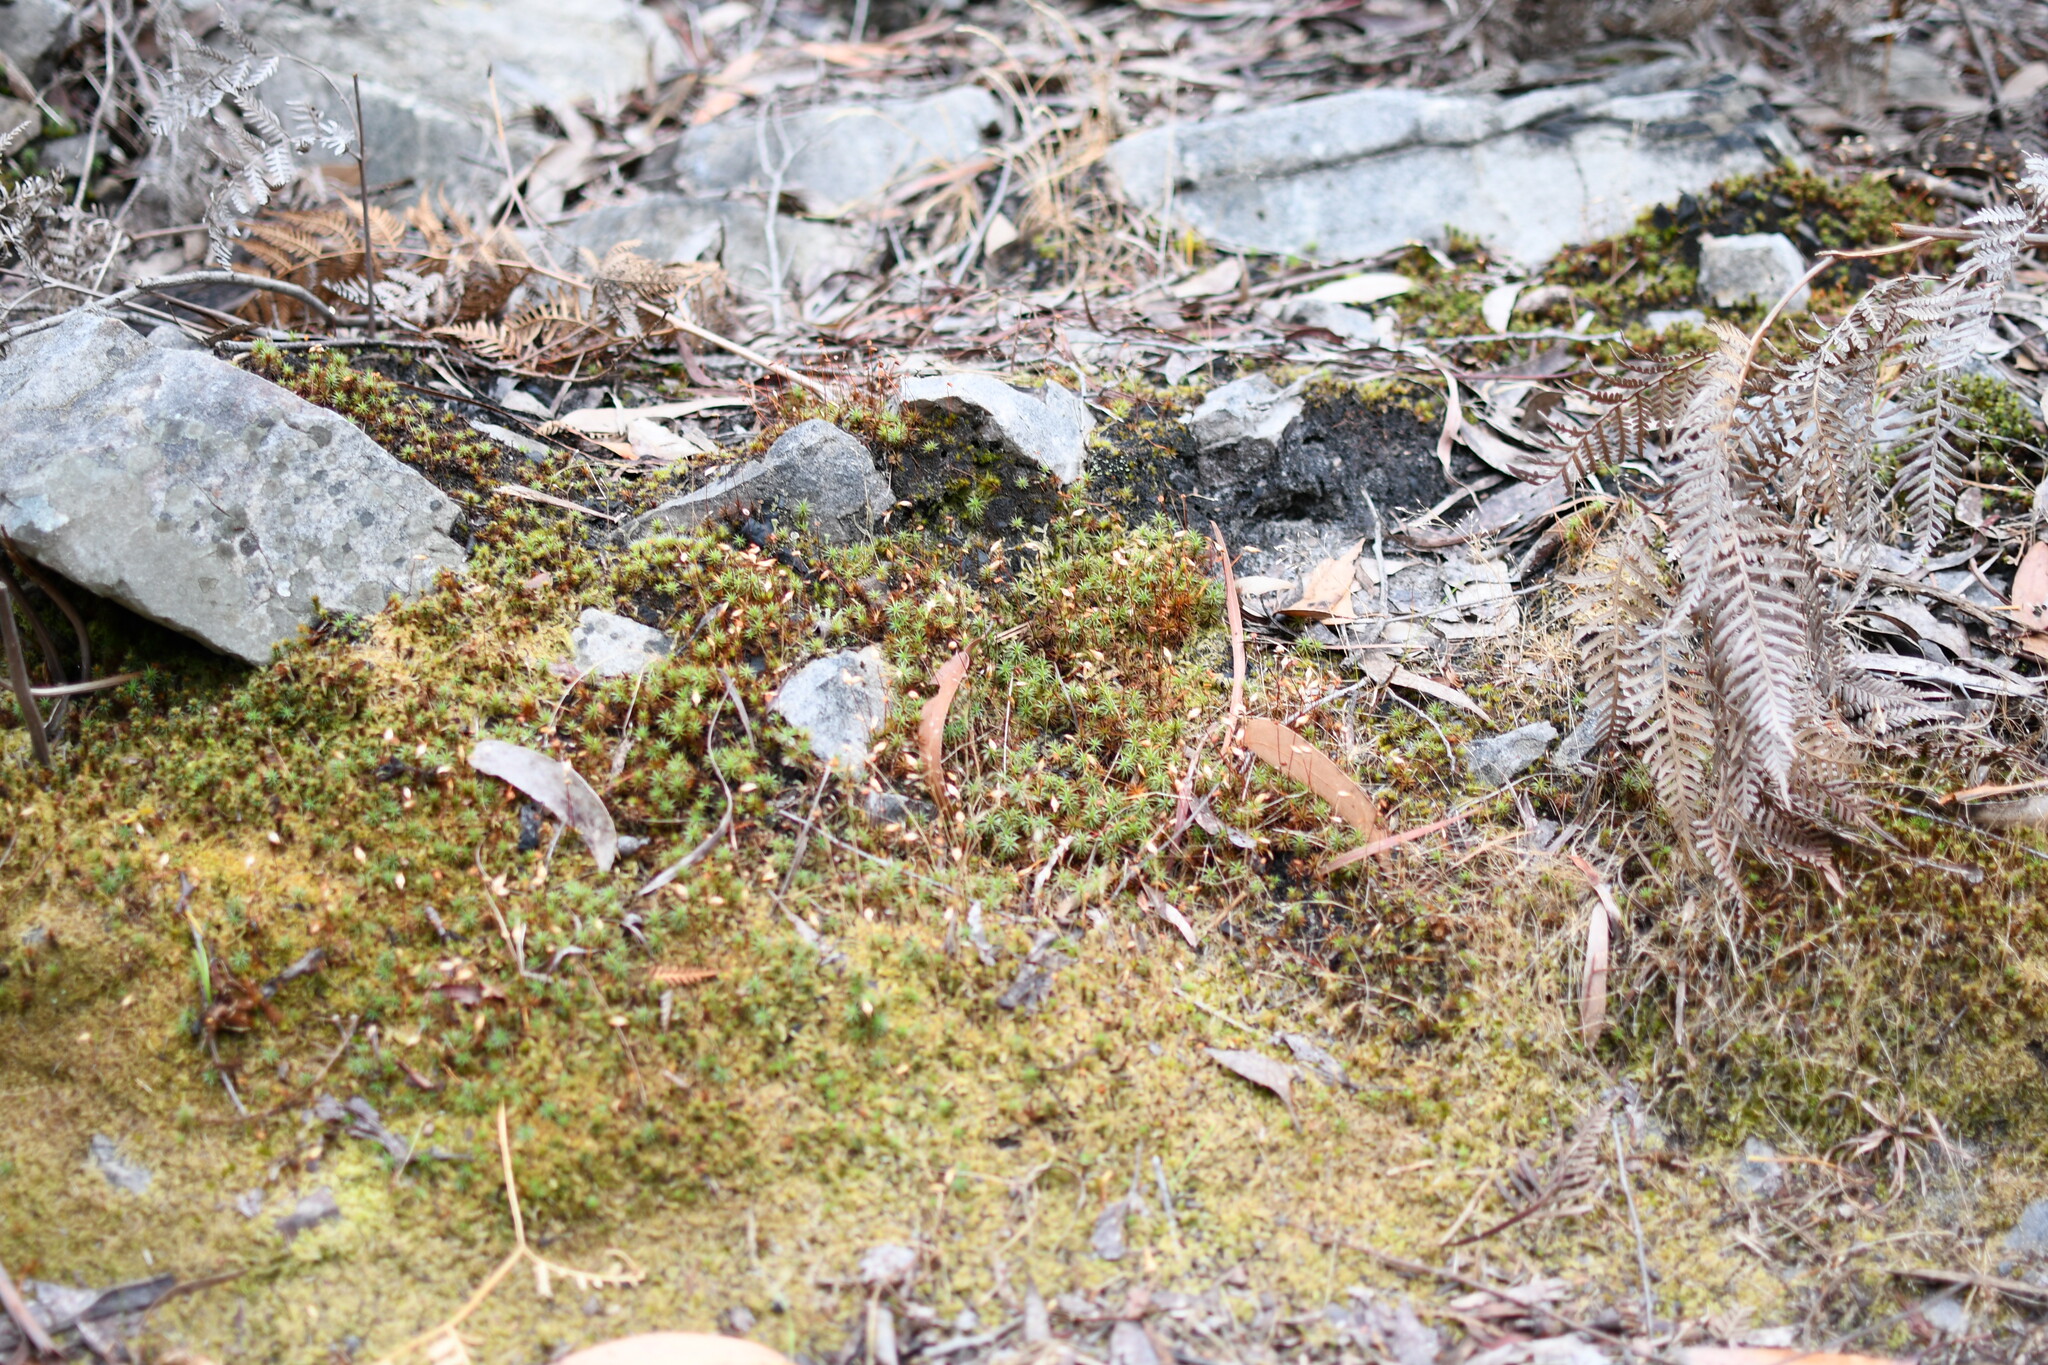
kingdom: Plantae
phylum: Bryophyta
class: Polytrichopsida
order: Polytrichales
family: Polytrichaceae
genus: Polytrichum
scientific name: Polytrichum juniperinum
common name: Juniper haircap moss
